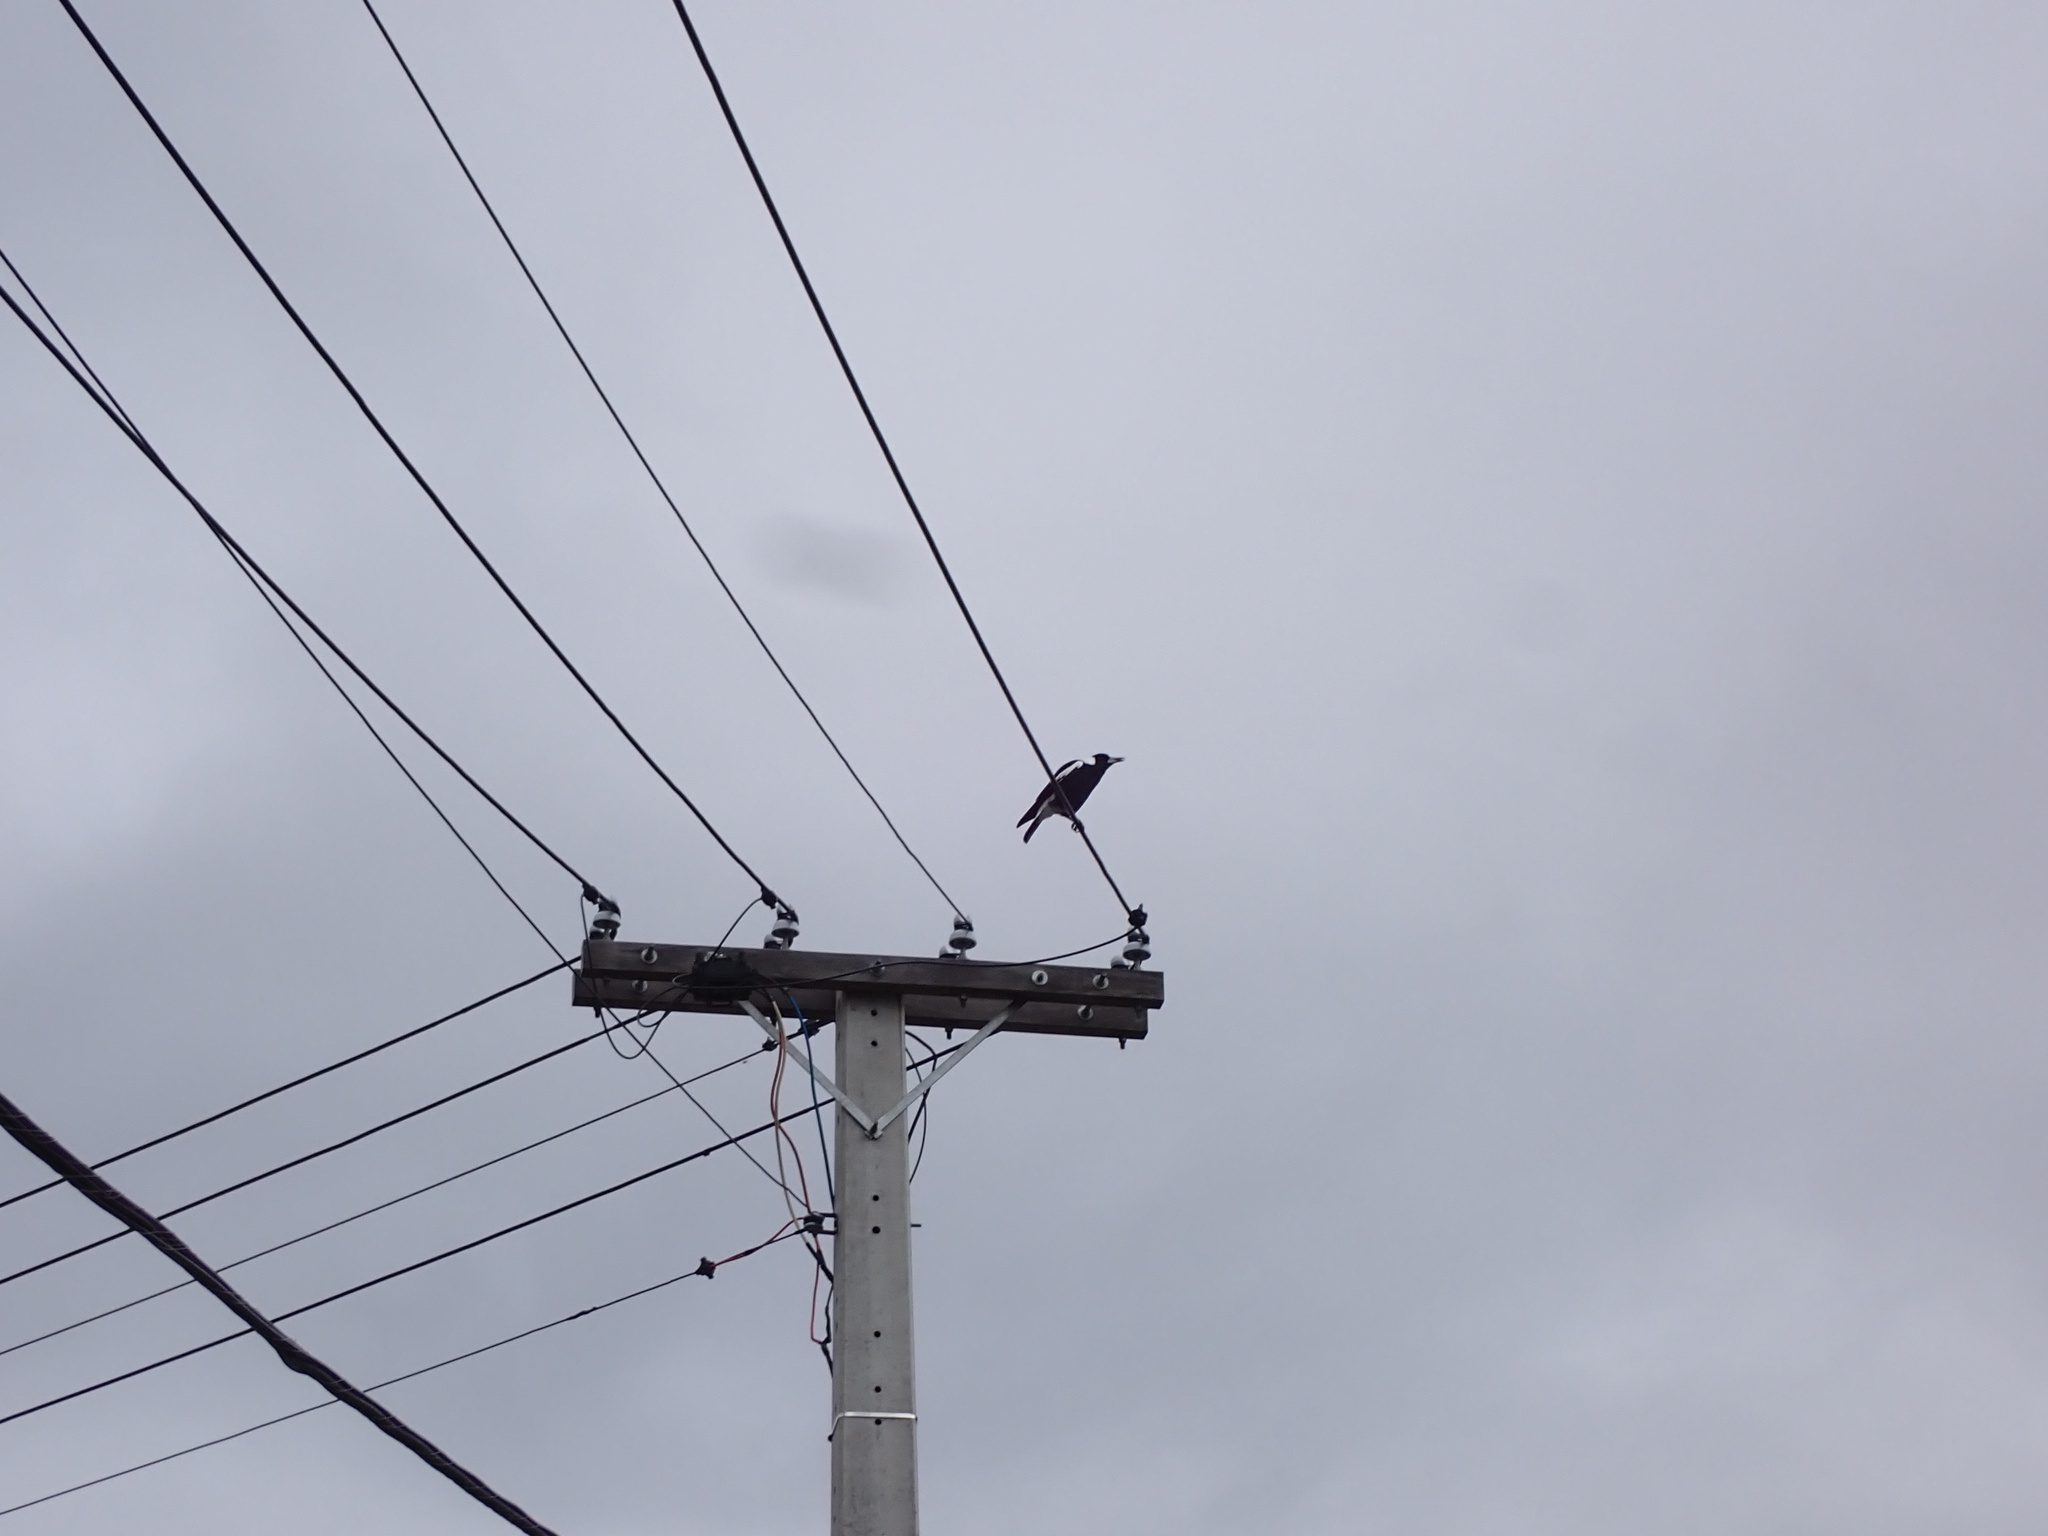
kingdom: Animalia
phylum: Chordata
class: Aves
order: Passeriformes
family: Cracticidae
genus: Gymnorhina
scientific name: Gymnorhina tibicen
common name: Australian magpie
